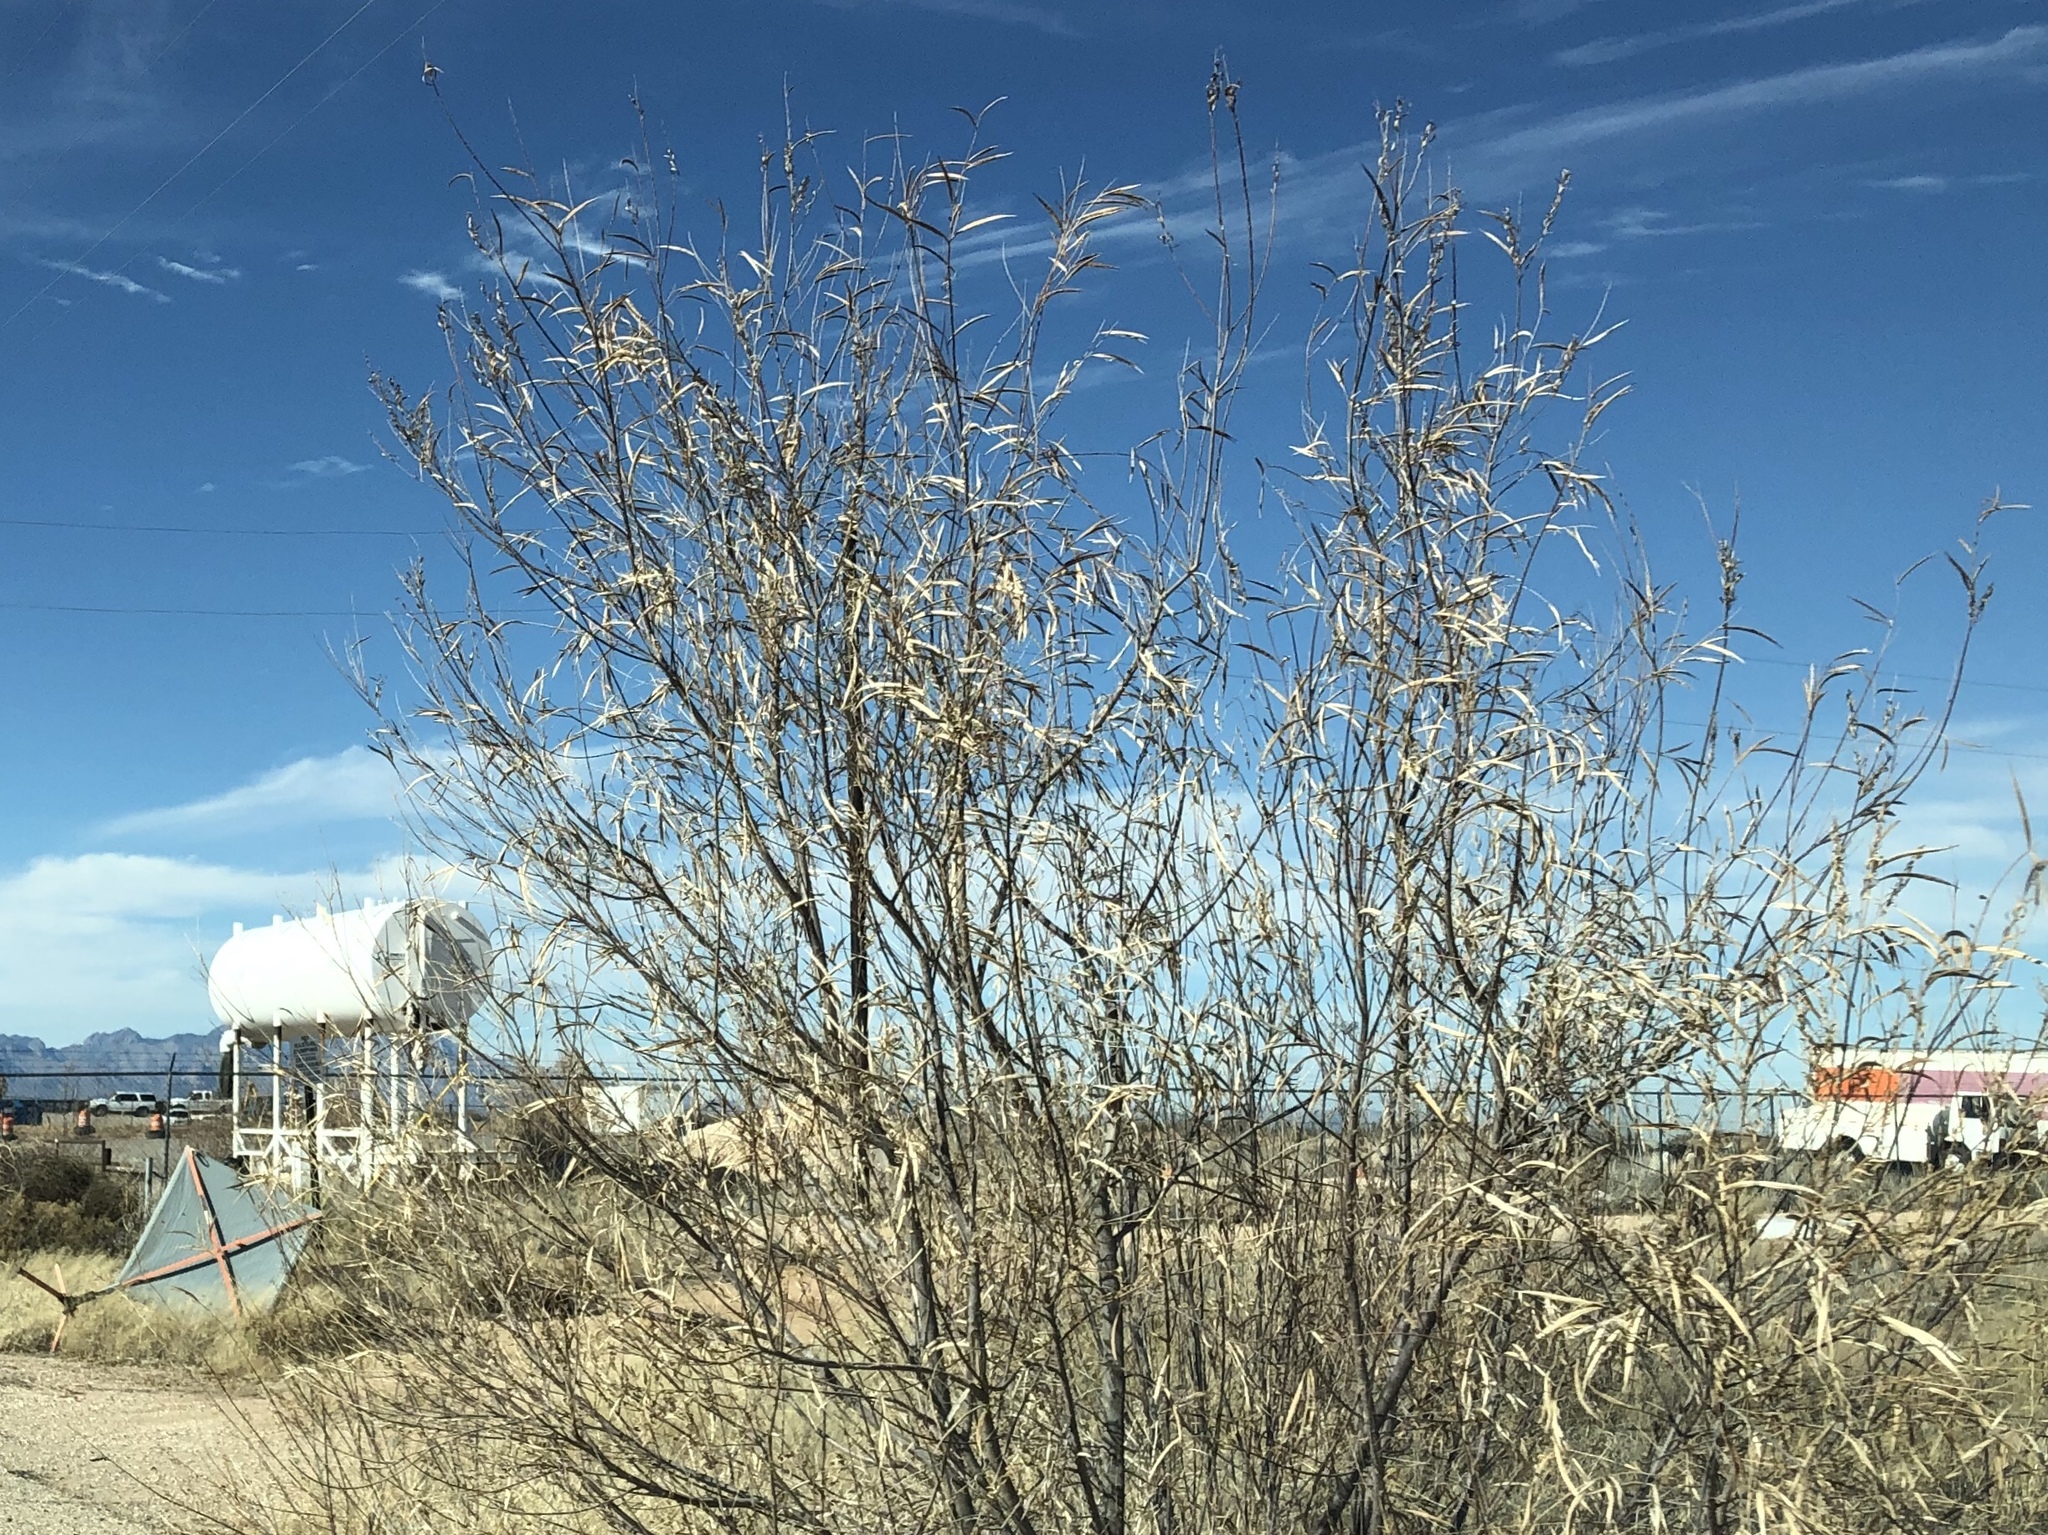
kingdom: Plantae
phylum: Tracheophyta
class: Magnoliopsida
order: Lamiales
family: Bignoniaceae
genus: Chilopsis
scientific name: Chilopsis linearis
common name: Desert-willow
